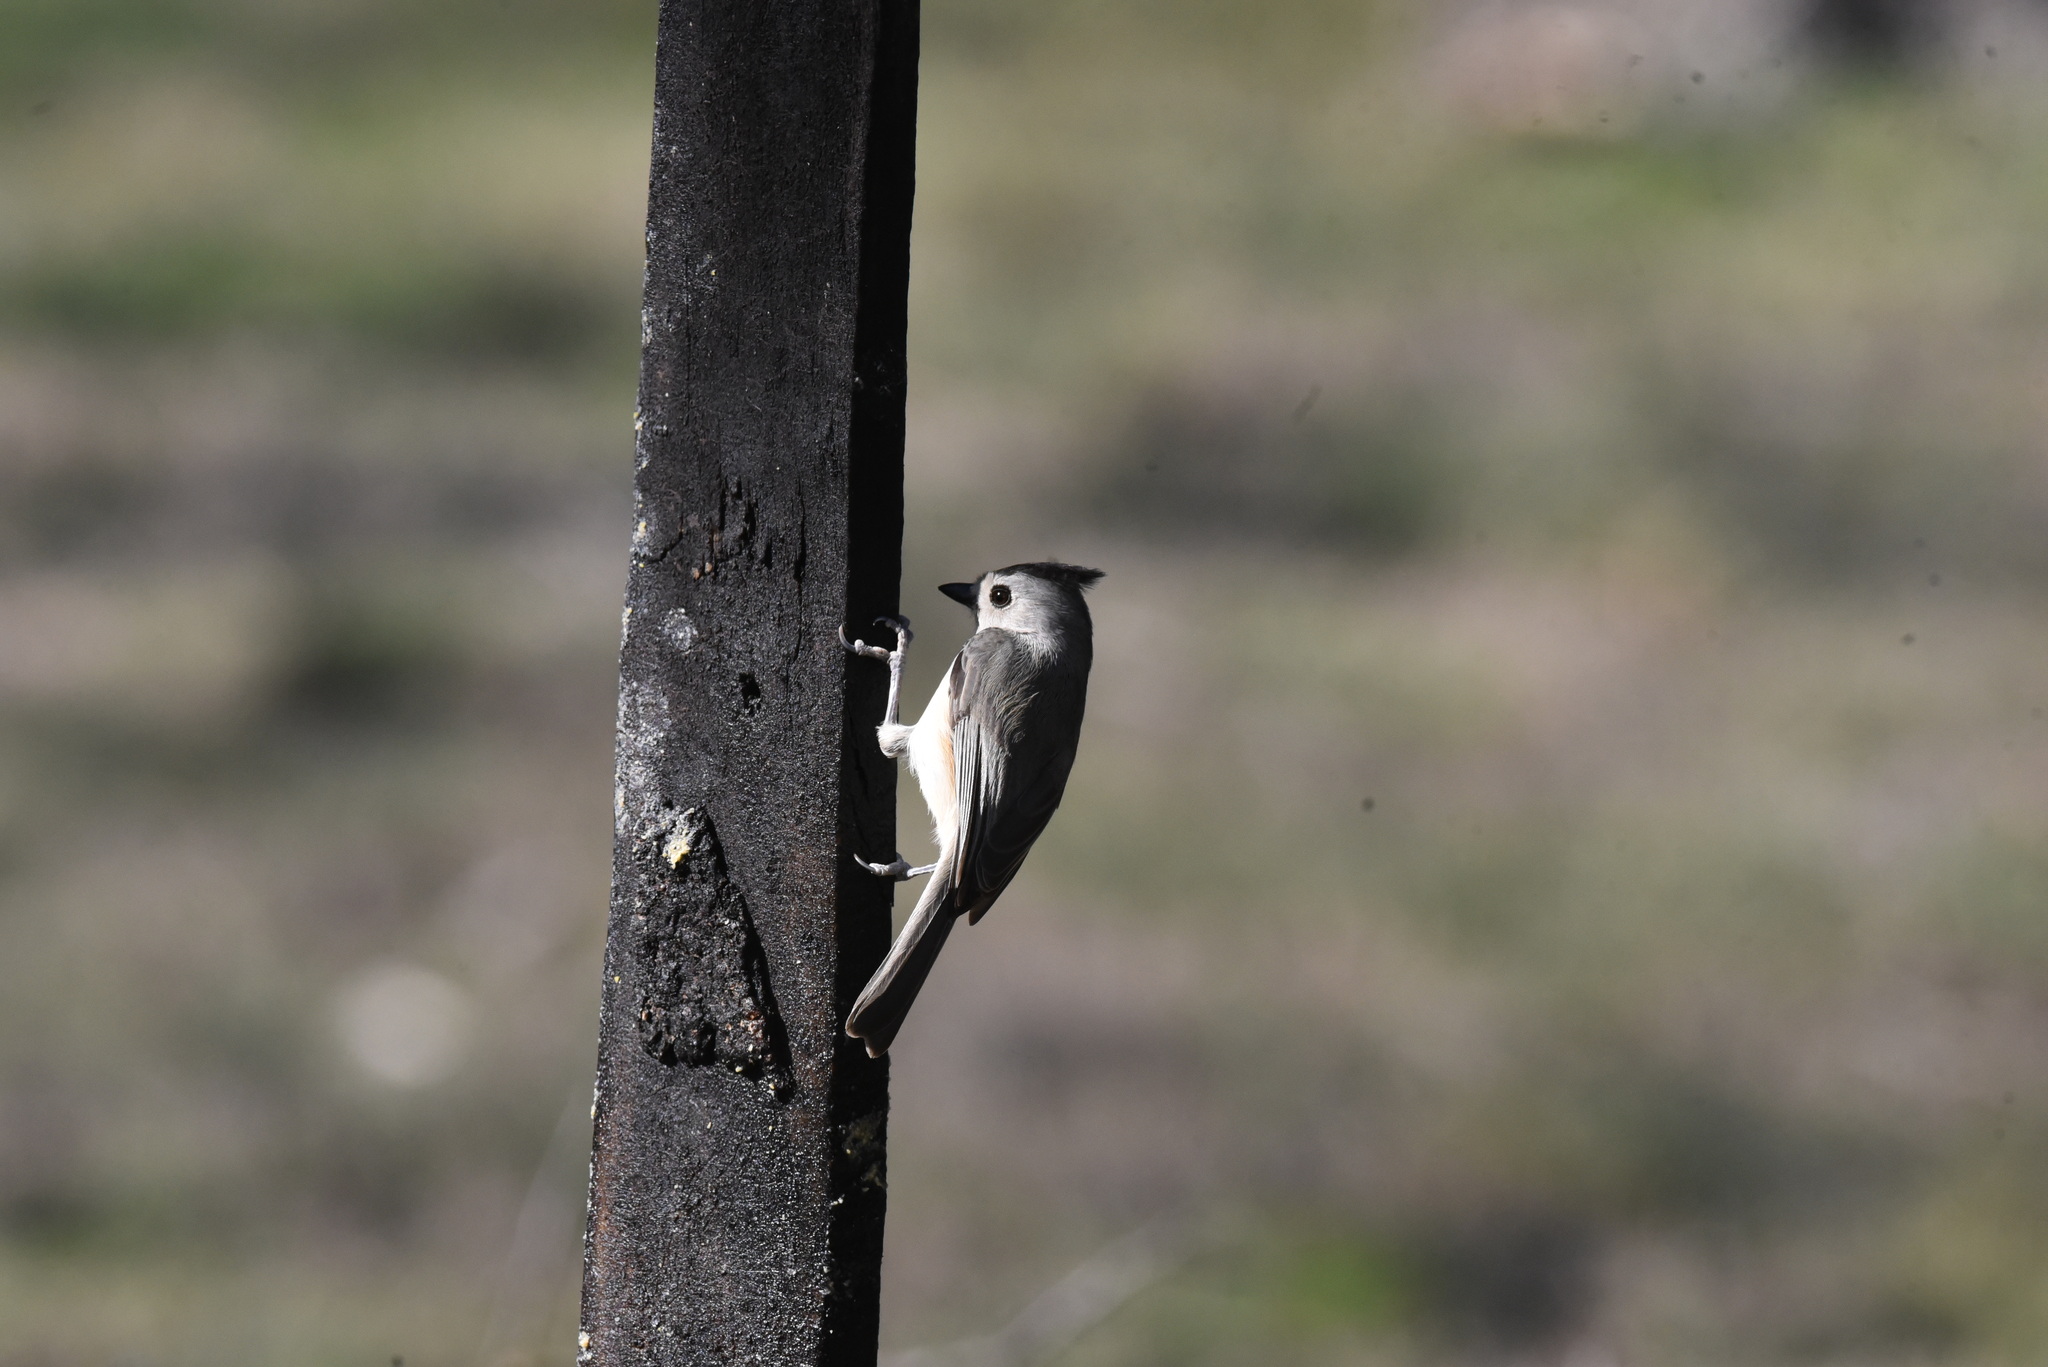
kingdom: Animalia
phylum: Chordata
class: Aves
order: Passeriformes
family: Paridae
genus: Baeolophus
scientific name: Baeolophus atricristatus
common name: Black-crested titmouse
